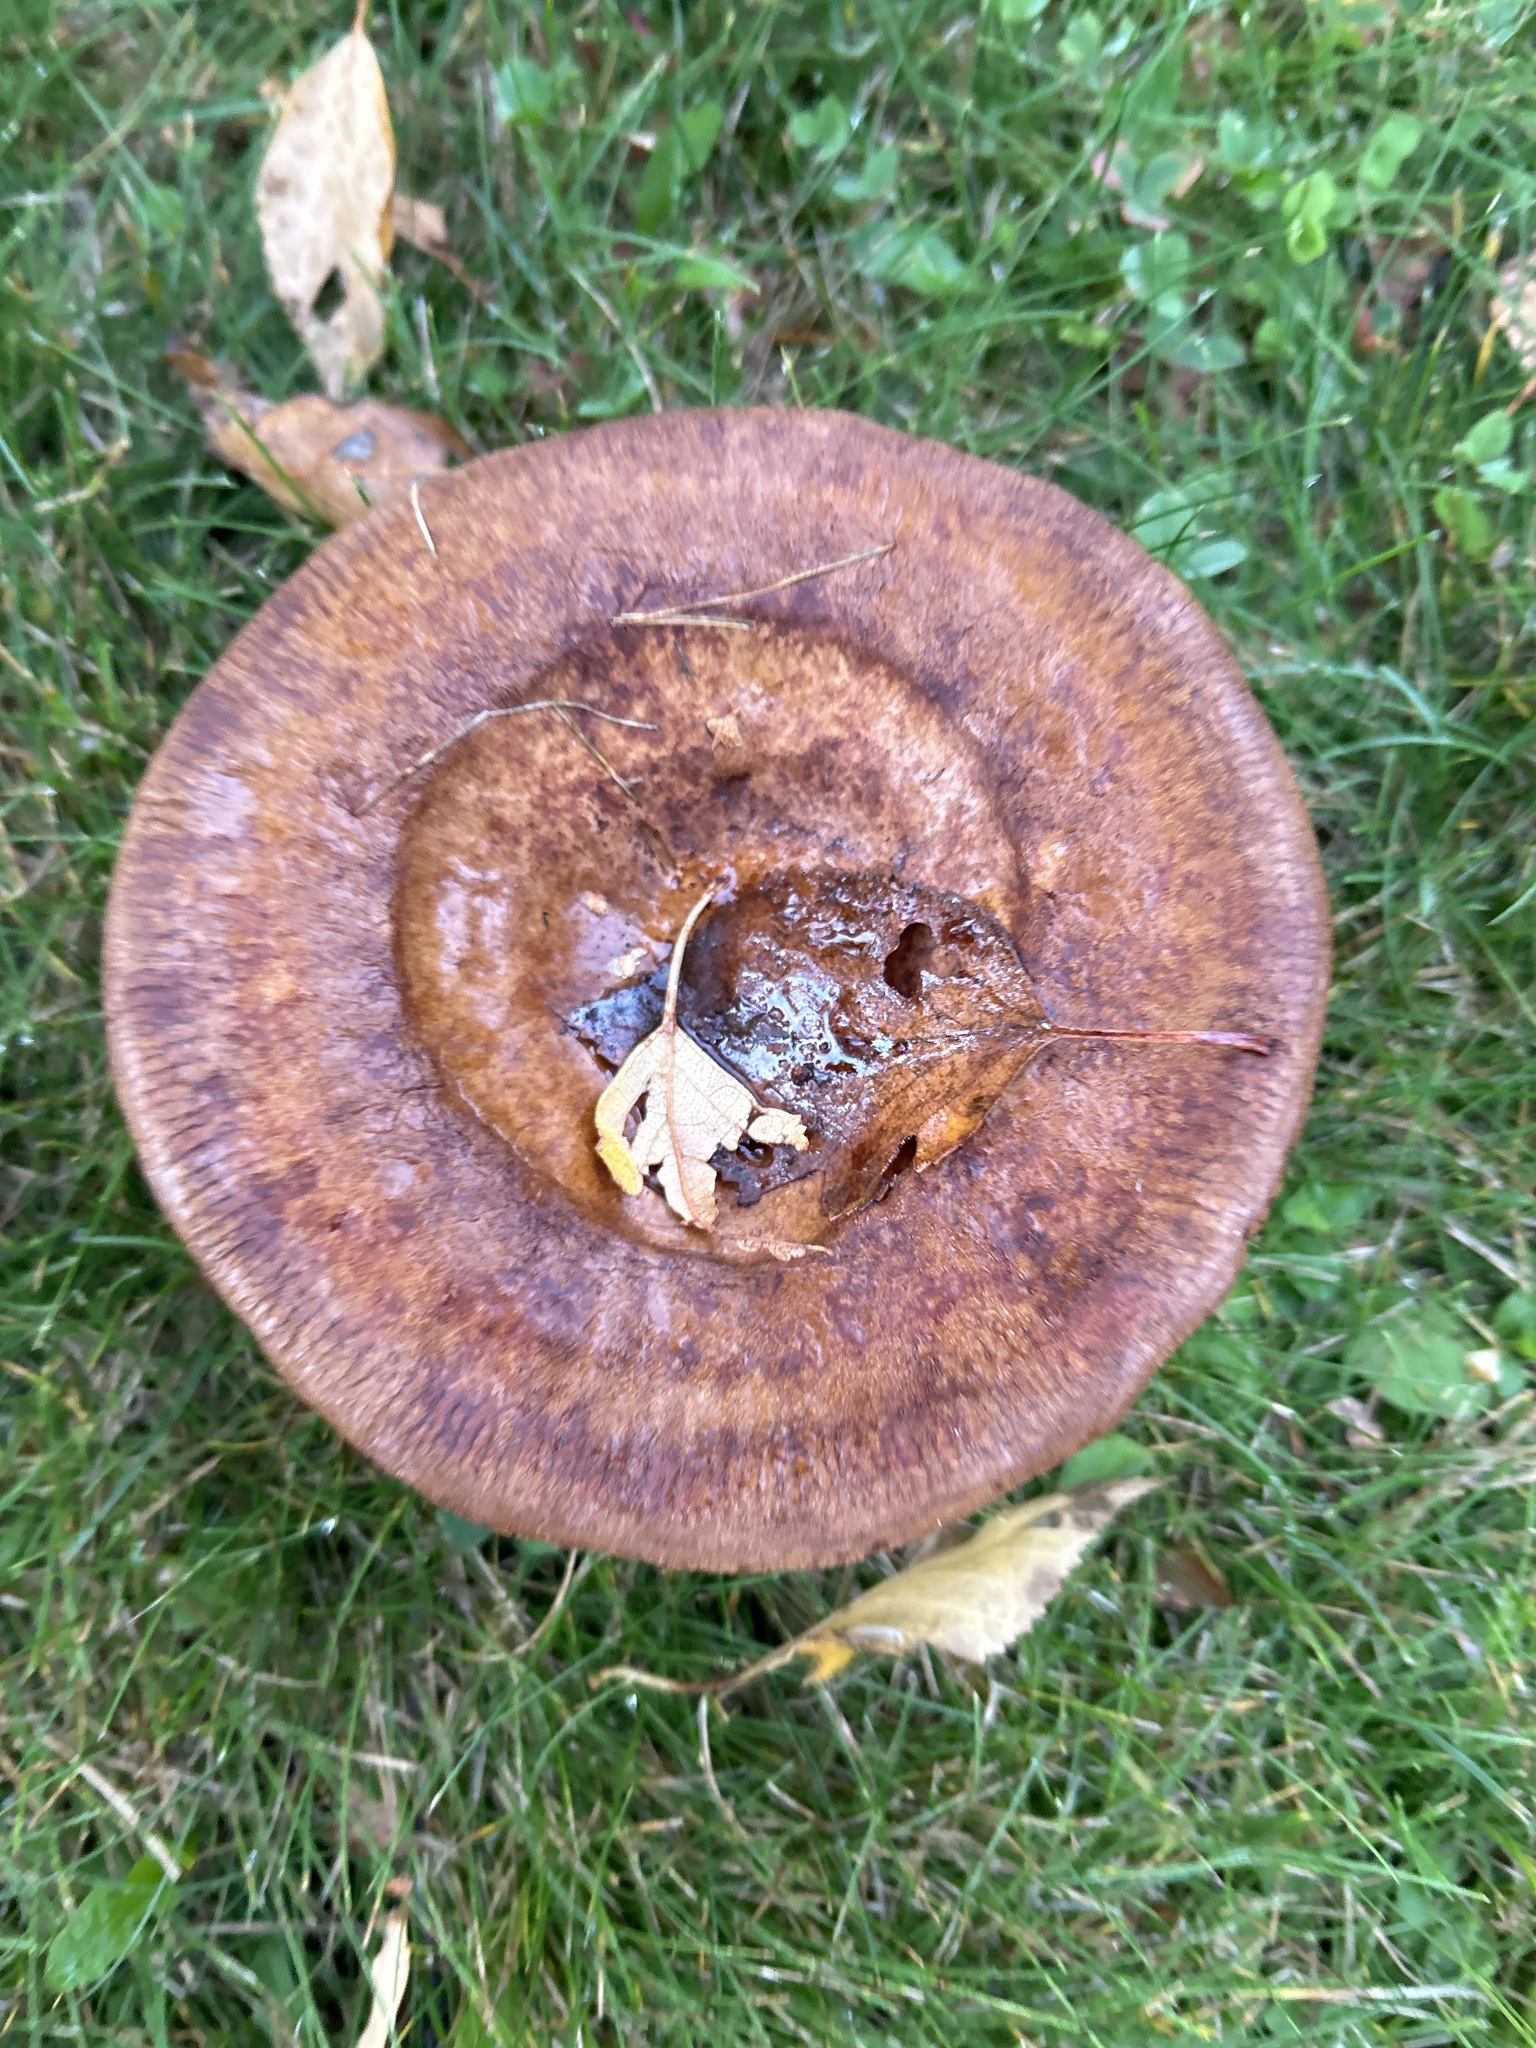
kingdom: Fungi
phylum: Basidiomycota
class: Agaricomycetes
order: Boletales
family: Paxillaceae
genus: Paxillus
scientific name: Paxillus involutus
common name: Brown roll rim
